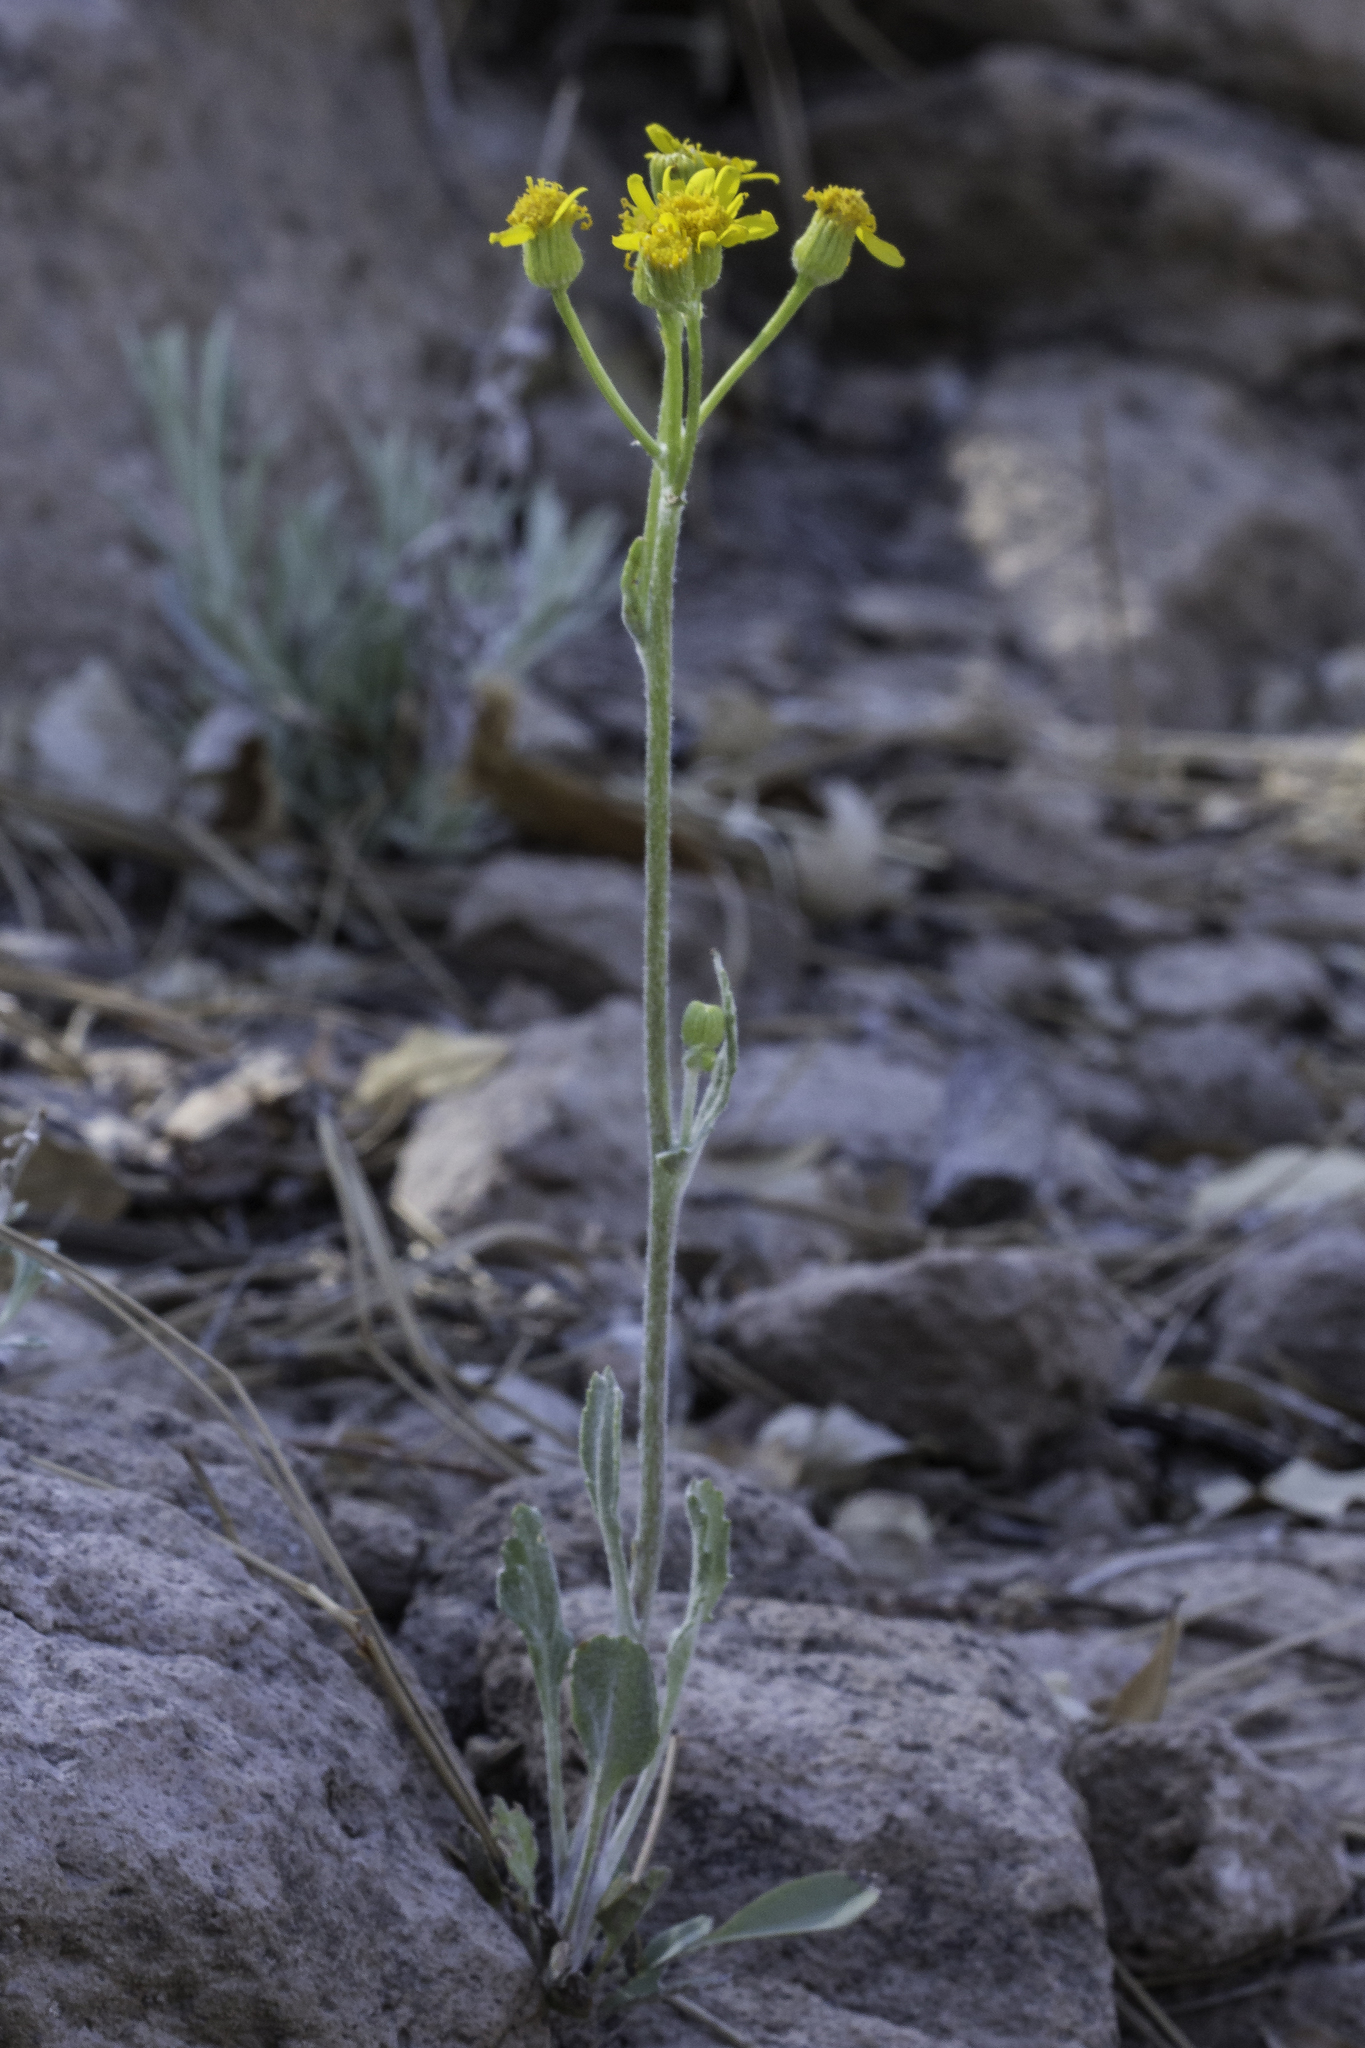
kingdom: Plantae
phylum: Tracheophyta
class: Magnoliopsida
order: Asterales
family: Asteraceae
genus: Packera
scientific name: Packera neomexicana
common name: New mexico butterweed
